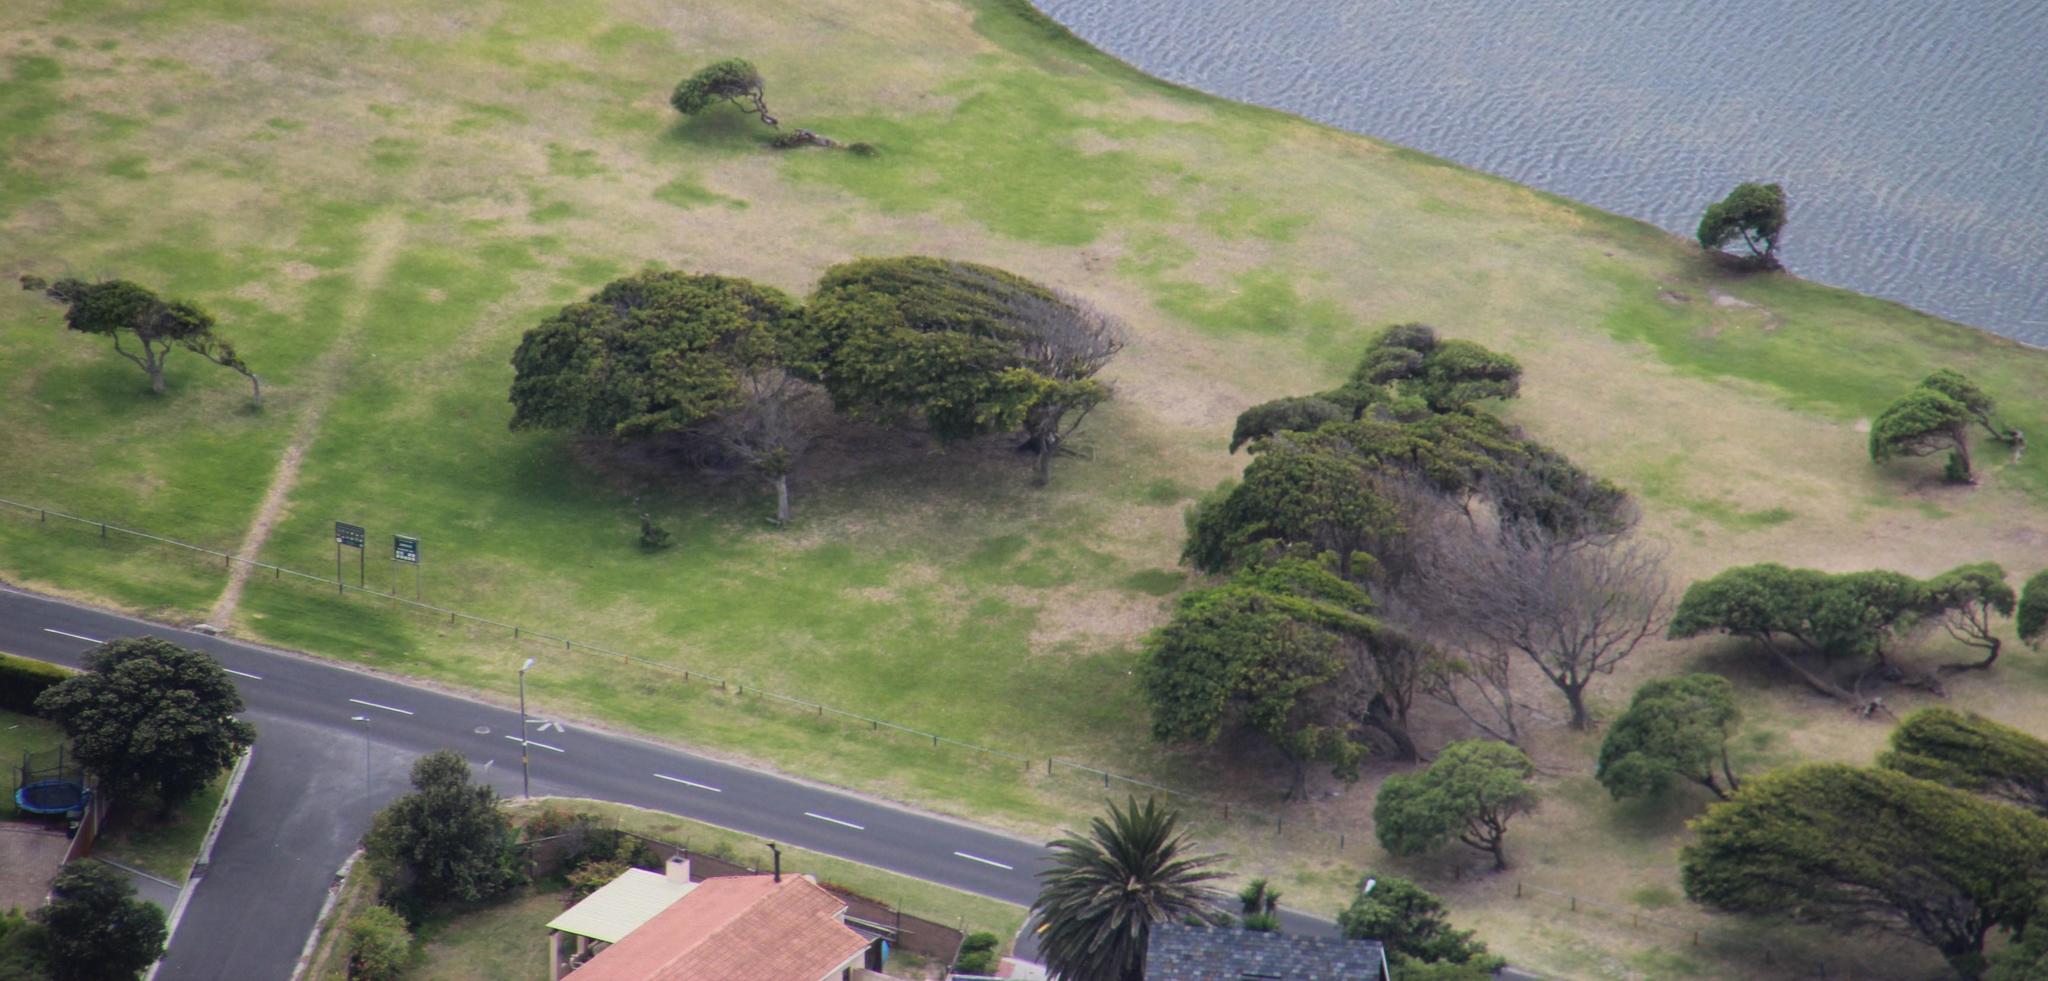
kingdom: Plantae
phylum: Tracheophyta
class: Magnoliopsida
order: Lamiales
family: Scrophulariaceae
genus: Myoporum
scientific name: Myoporum montanum
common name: Waterbush
